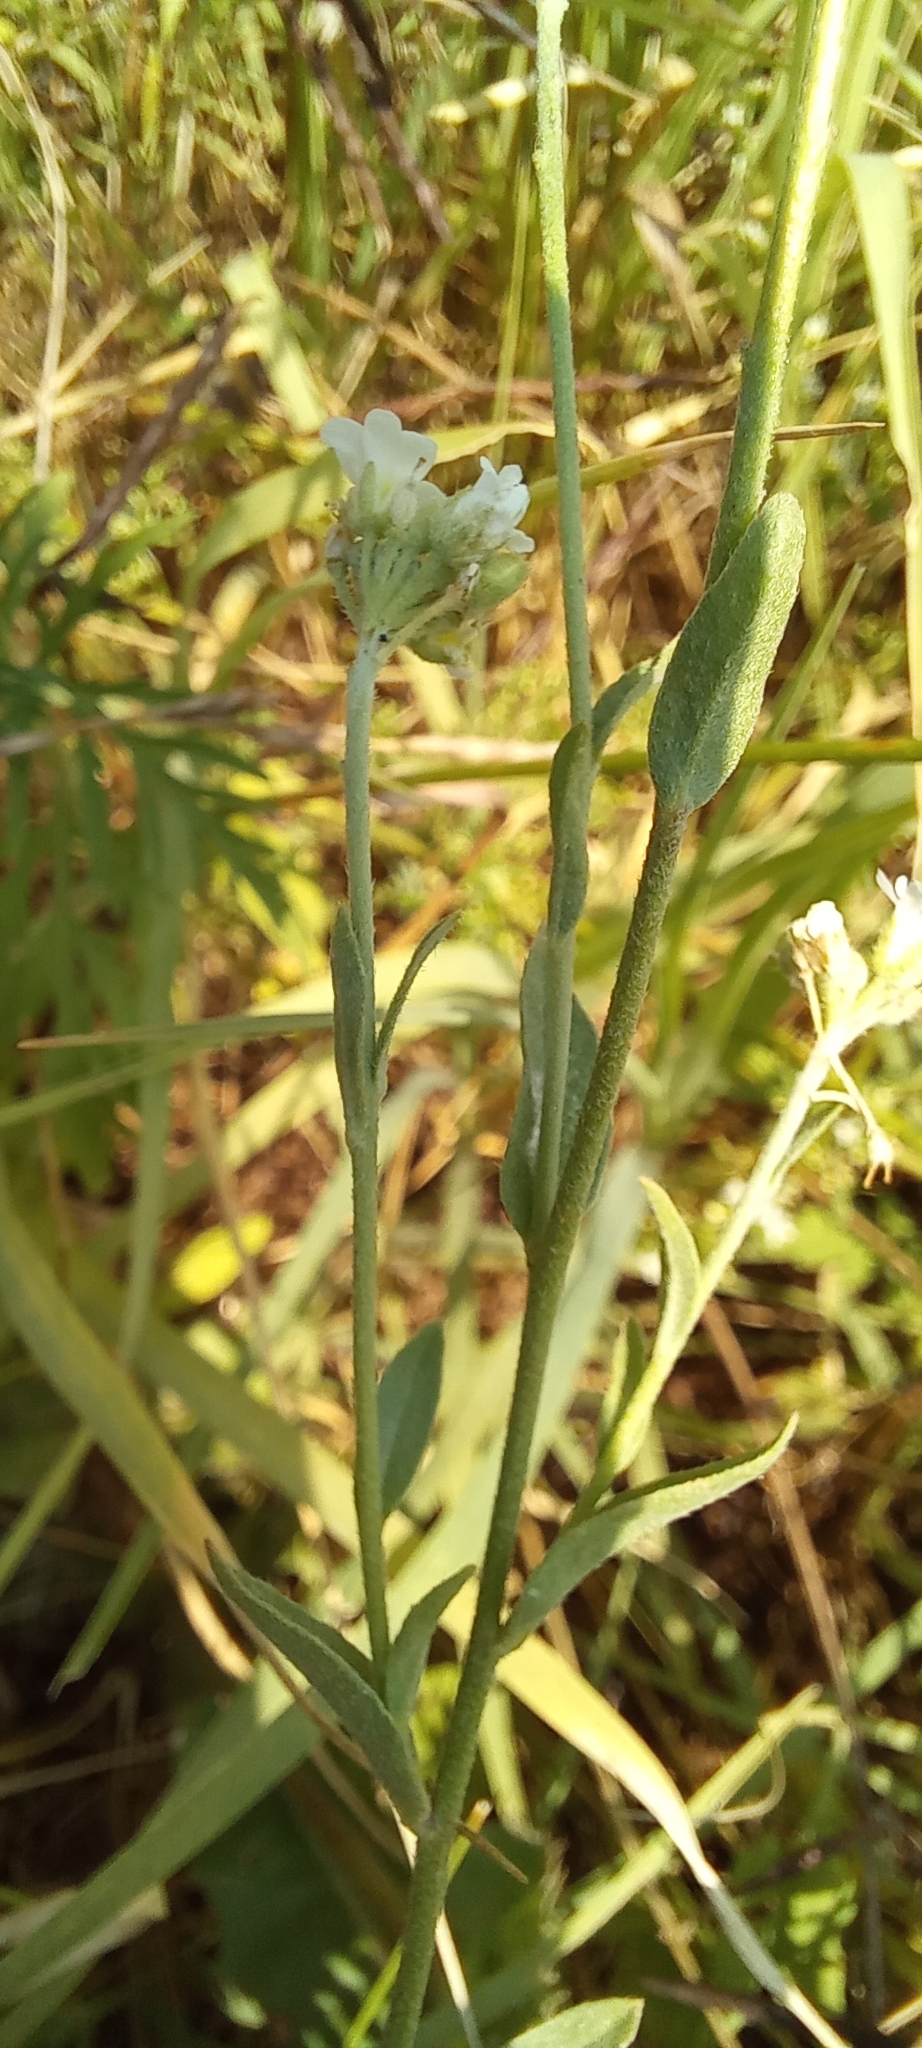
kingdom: Plantae
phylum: Tracheophyta
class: Magnoliopsida
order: Brassicales
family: Brassicaceae
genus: Berteroa
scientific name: Berteroa incana
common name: Hoary alison
